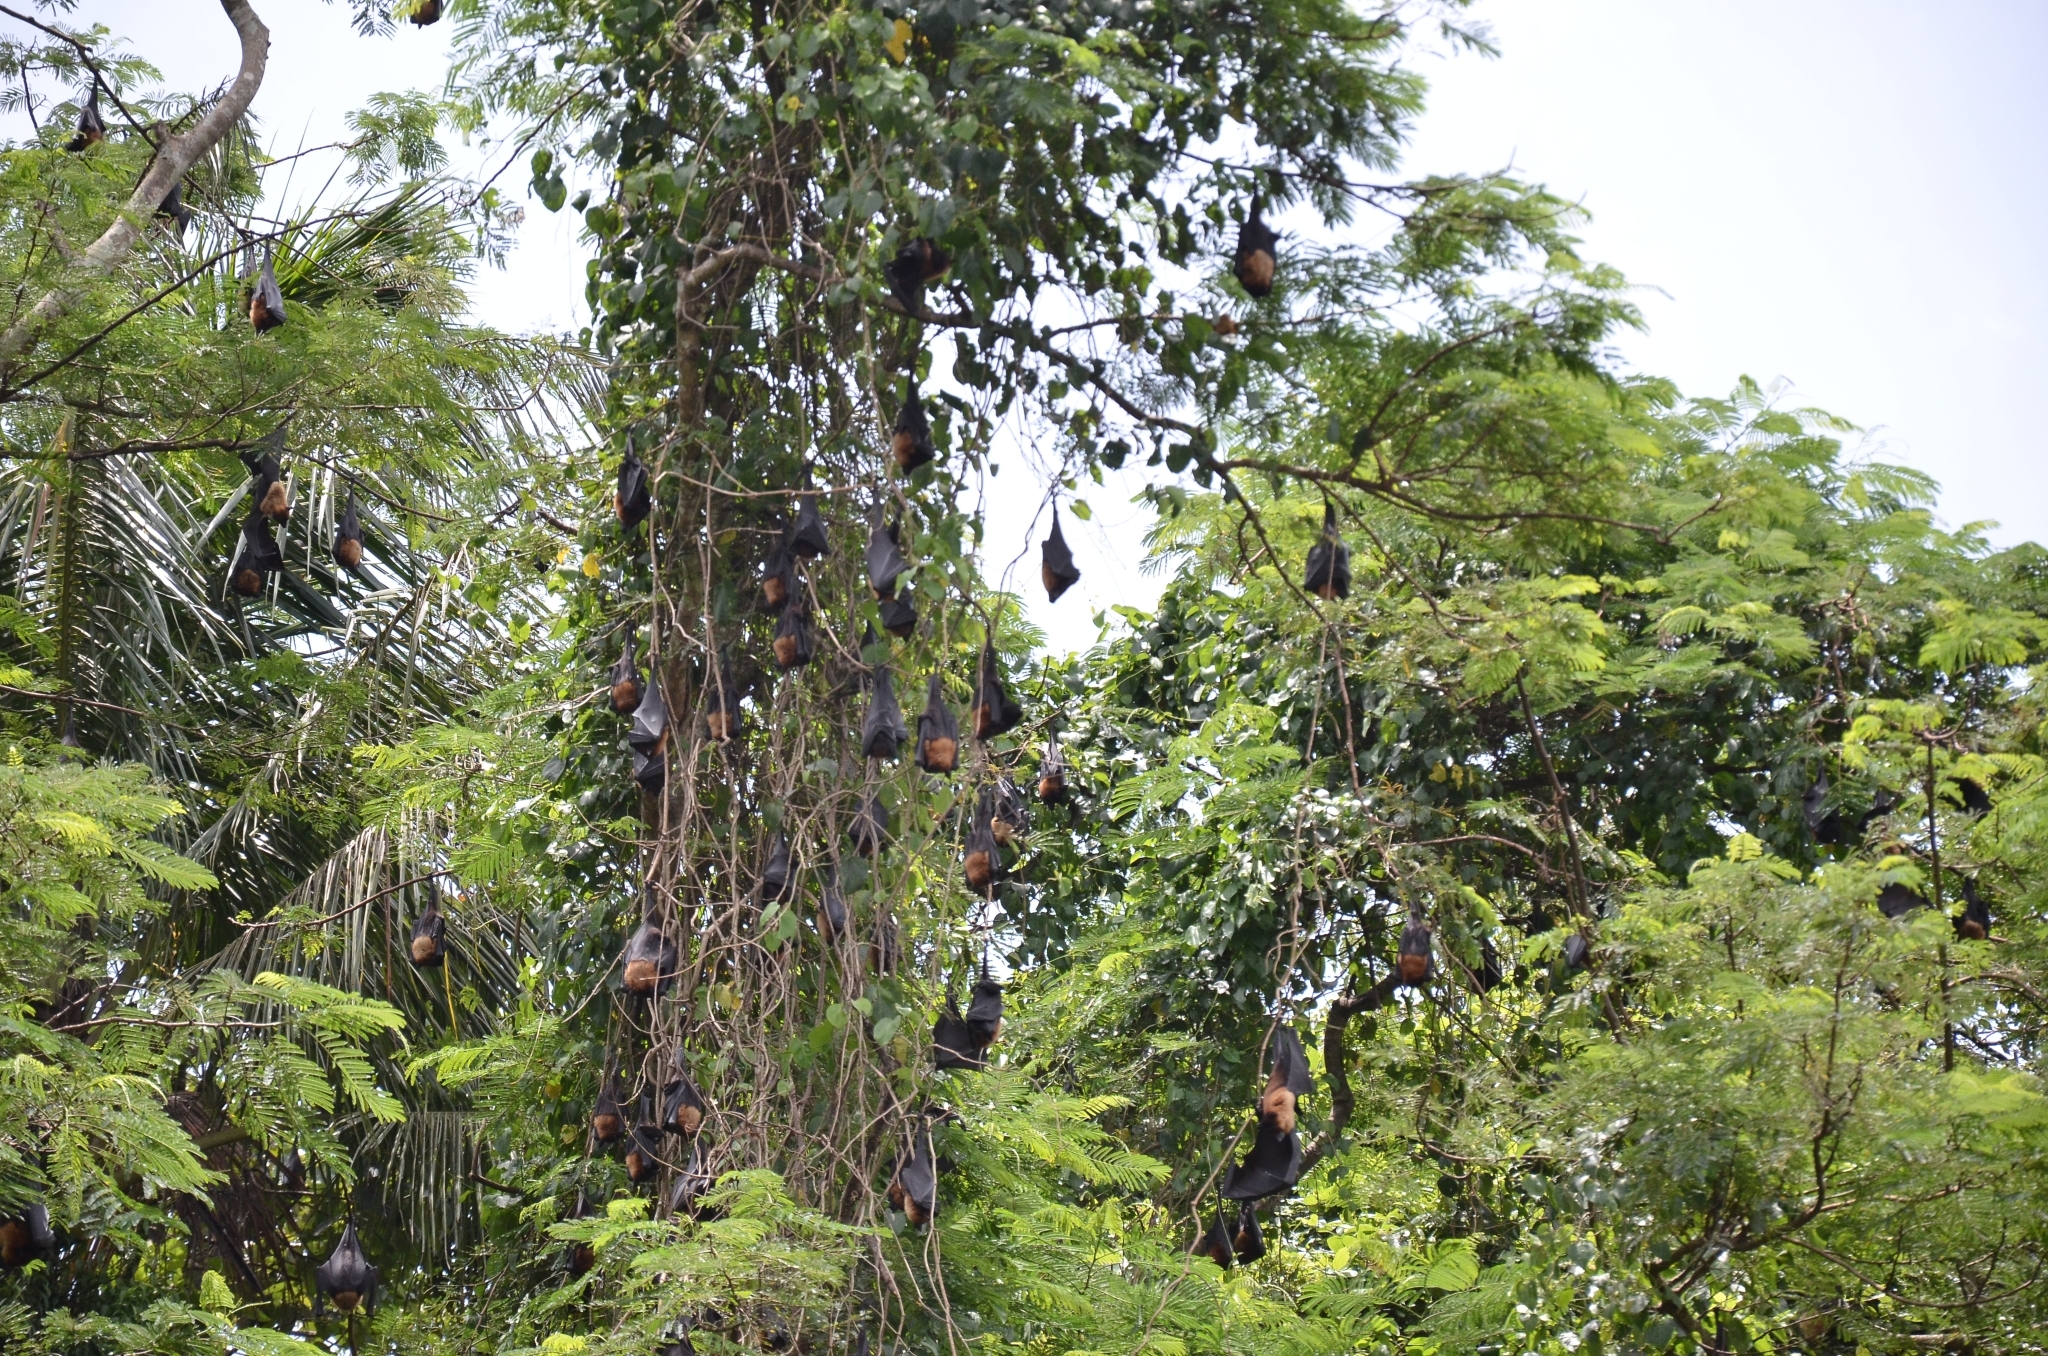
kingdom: Animalia
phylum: Chordata
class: Mammalia
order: Chiroptera
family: Pteropodidae
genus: Pteropus
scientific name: Pteropus vampyrus
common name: Large flying fox
